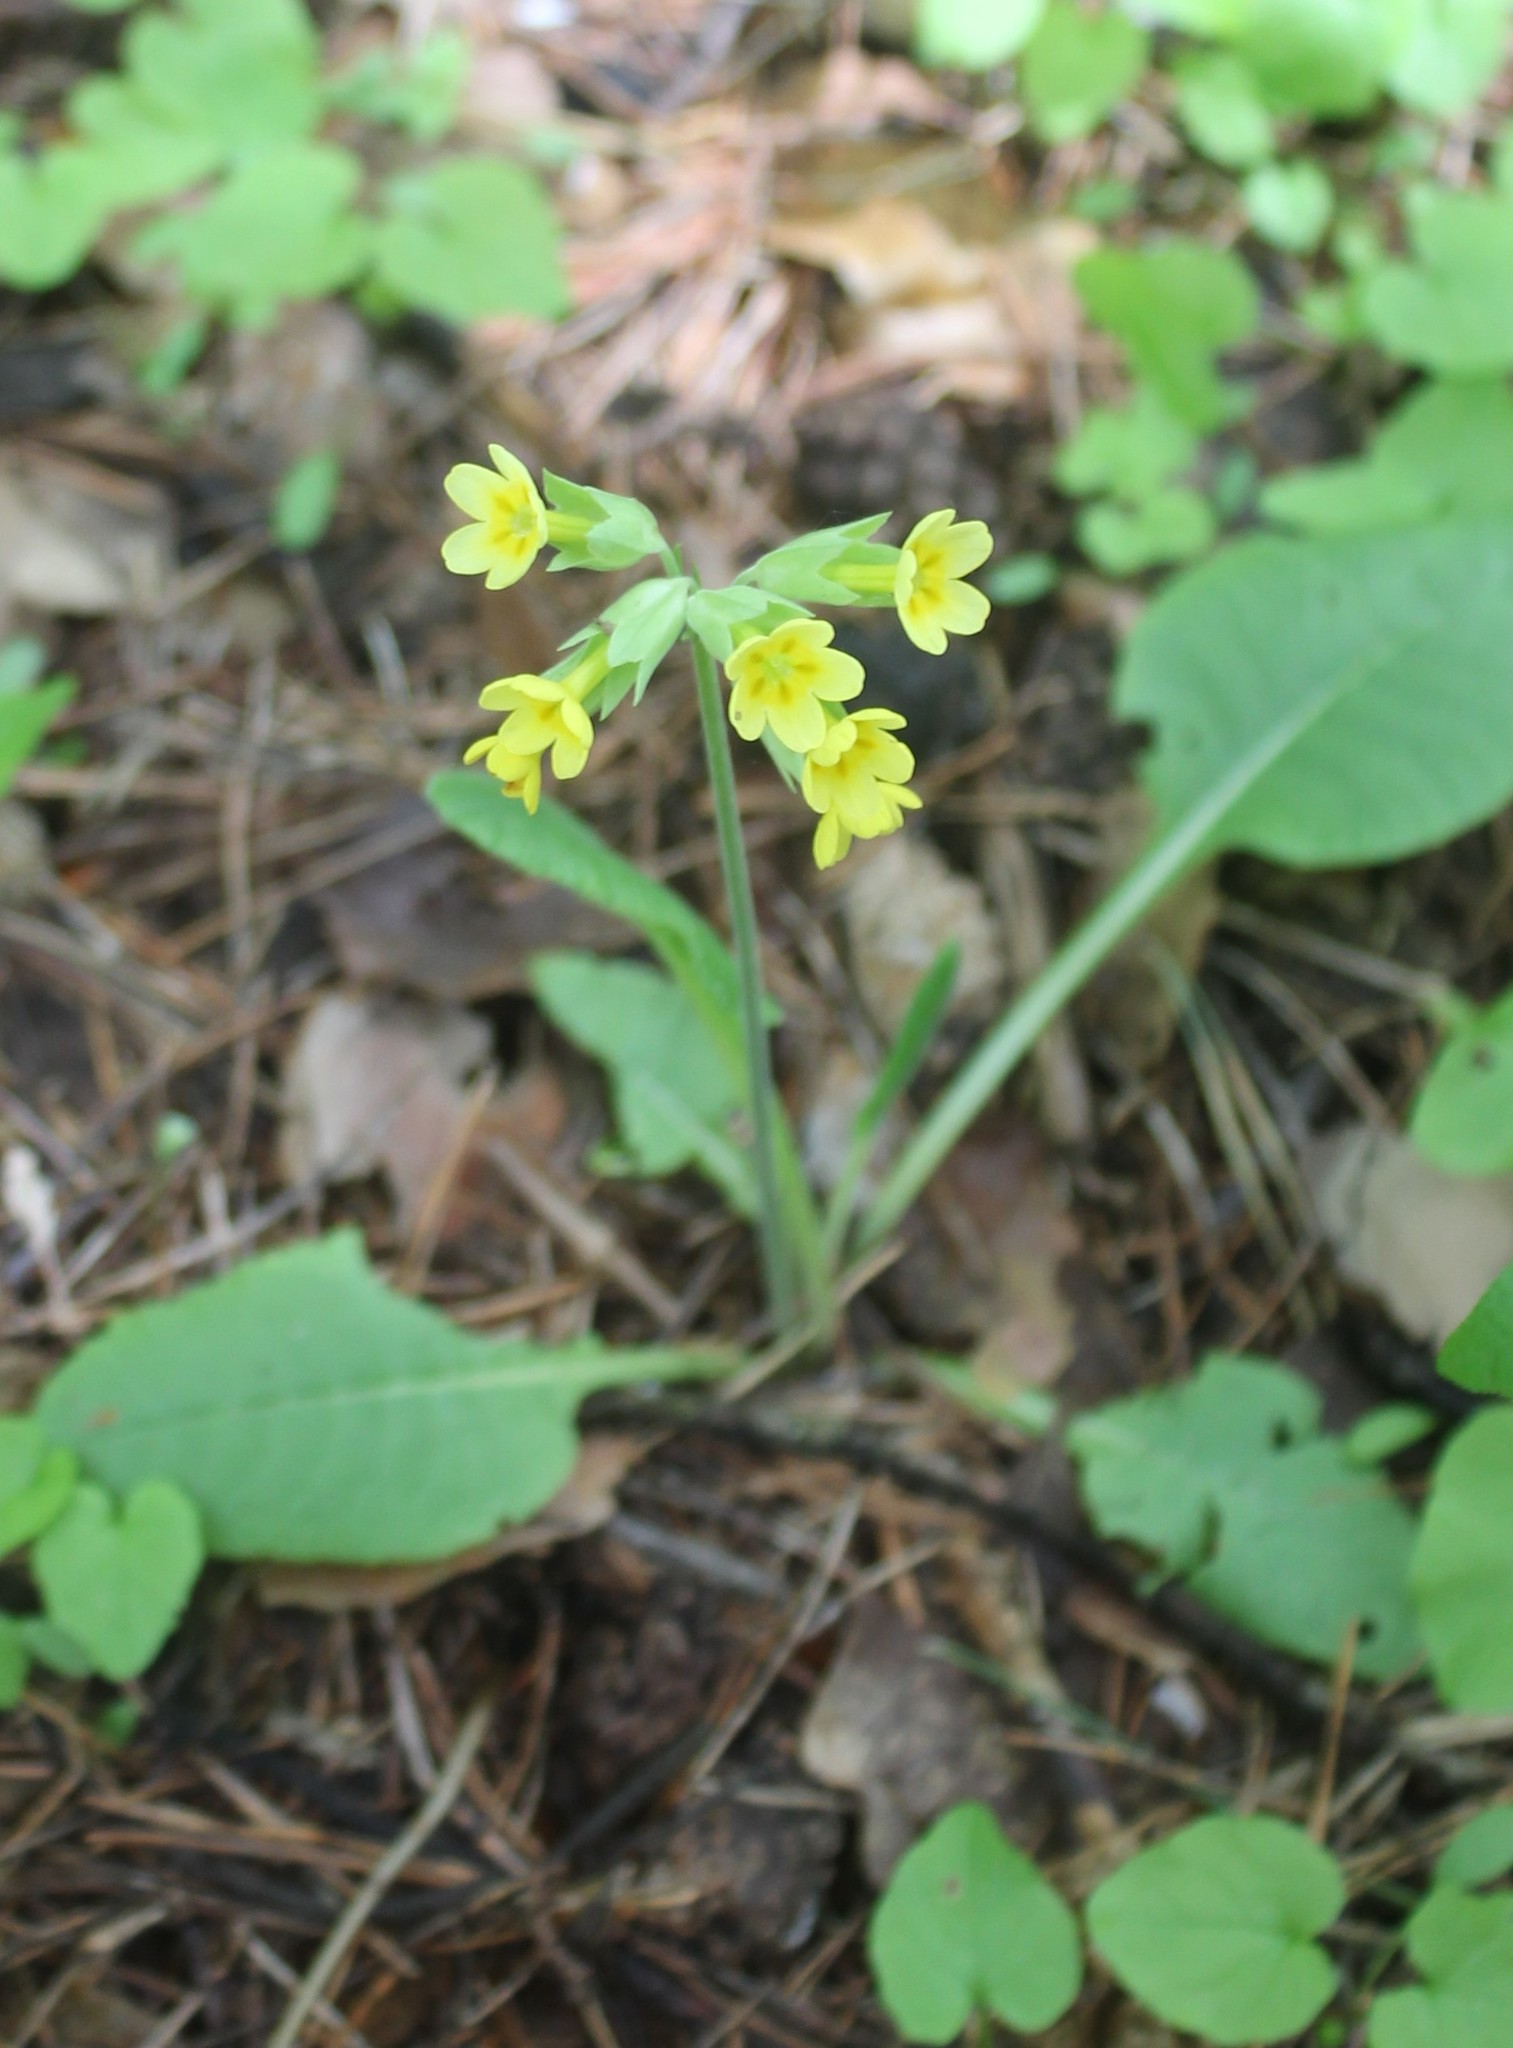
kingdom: Plantae
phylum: Tracheophyta
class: Magnoliopsida
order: Ericales
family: Primulaceae
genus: Primula
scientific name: Primula veris
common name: Cowslip
